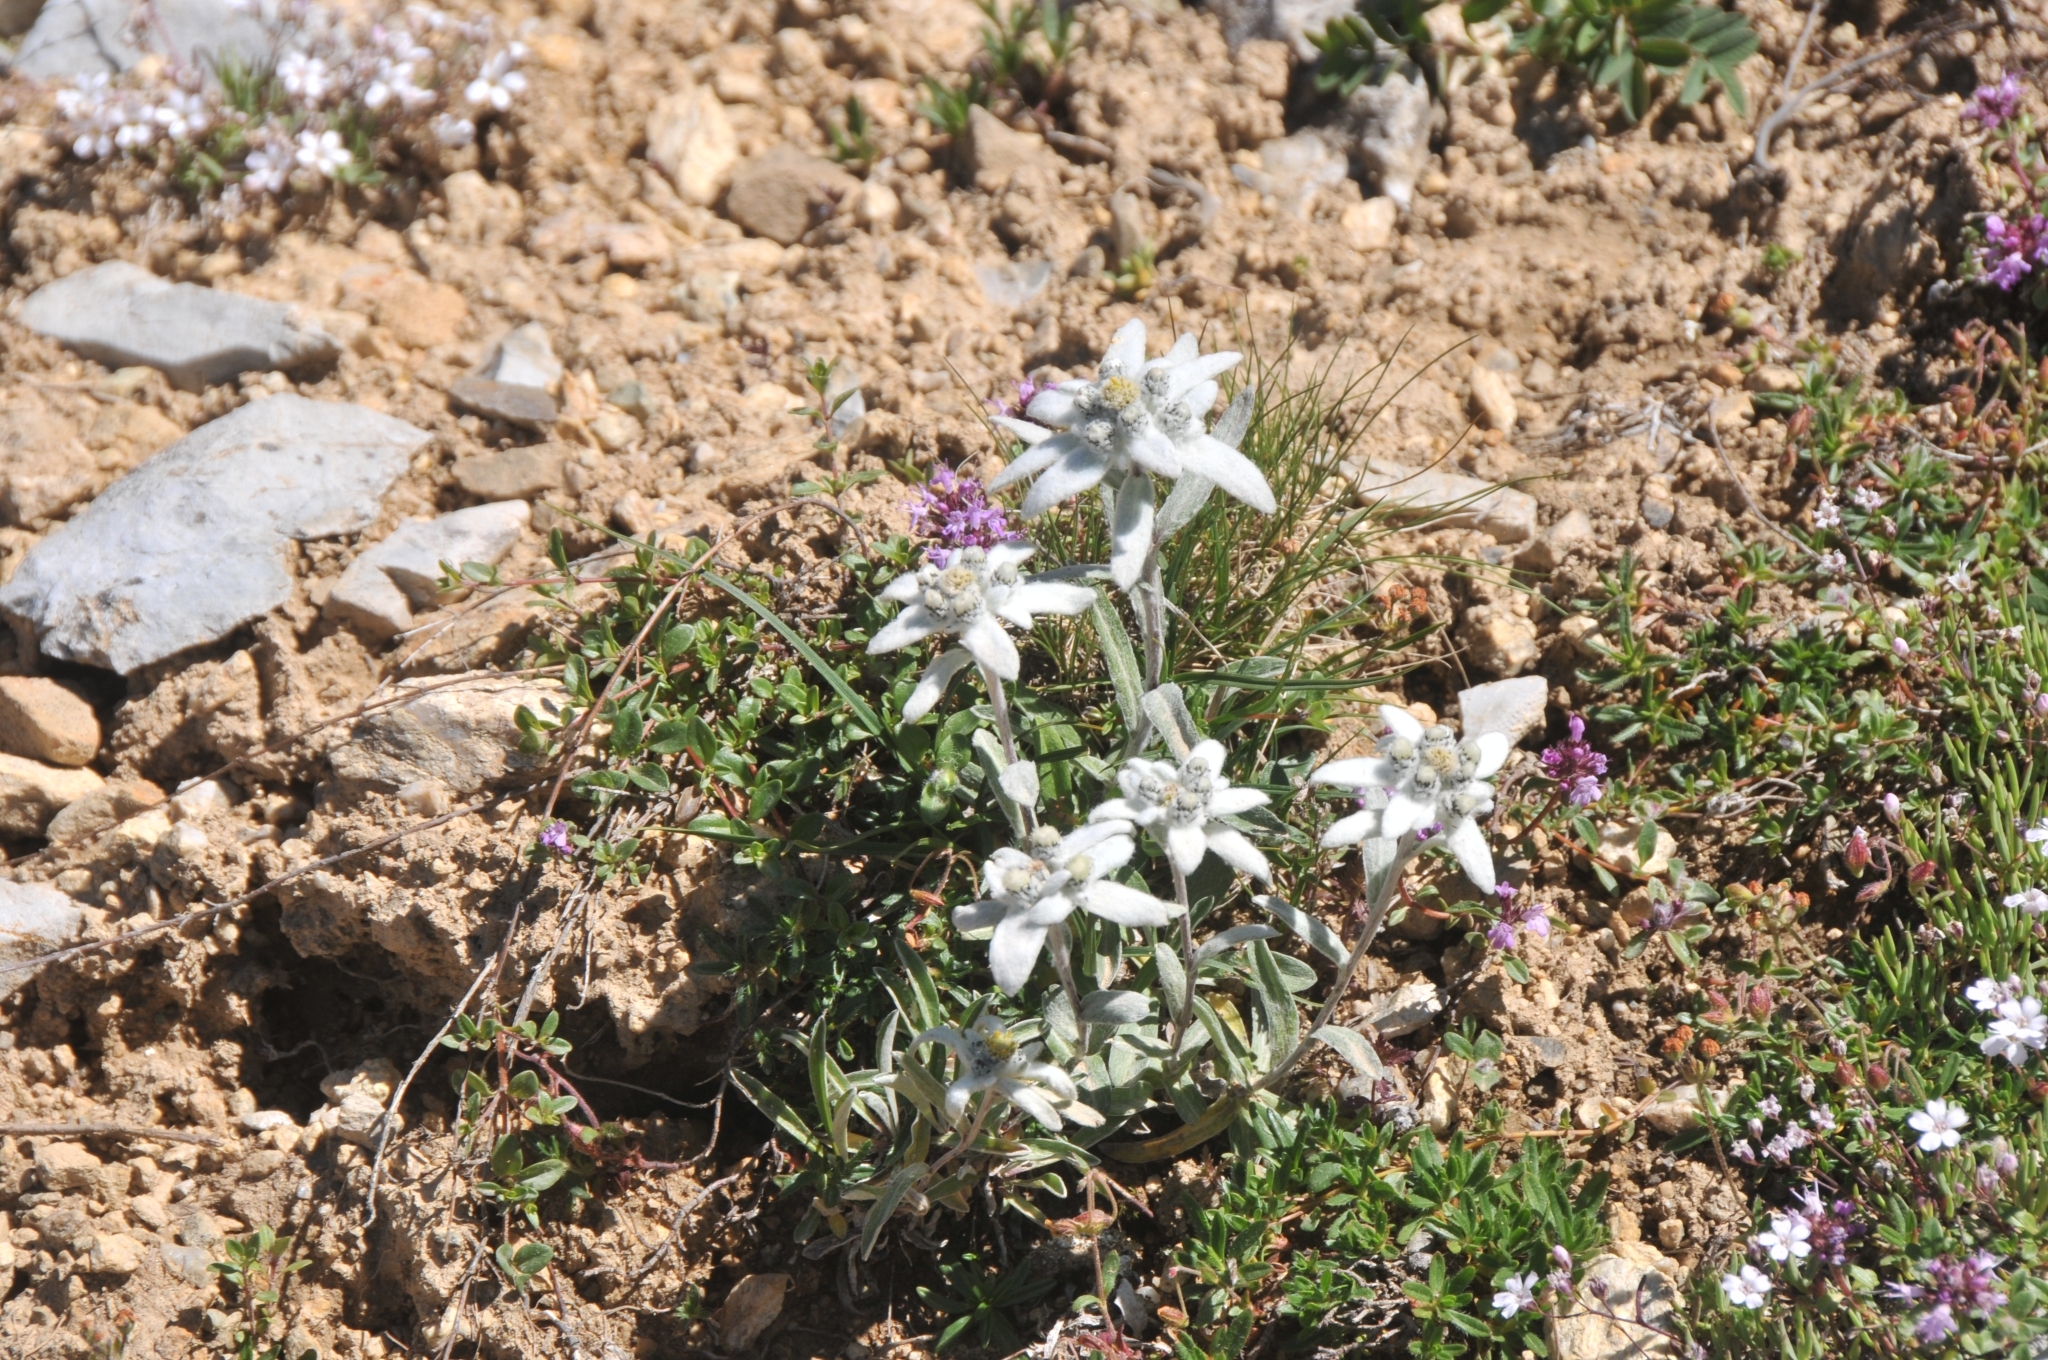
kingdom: Plantae
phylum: Tracheophyta
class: Magnoliopsida
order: Asterales
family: Asteraceae
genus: Leontopodium
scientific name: Leontopodium nivale
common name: Edelweiss
